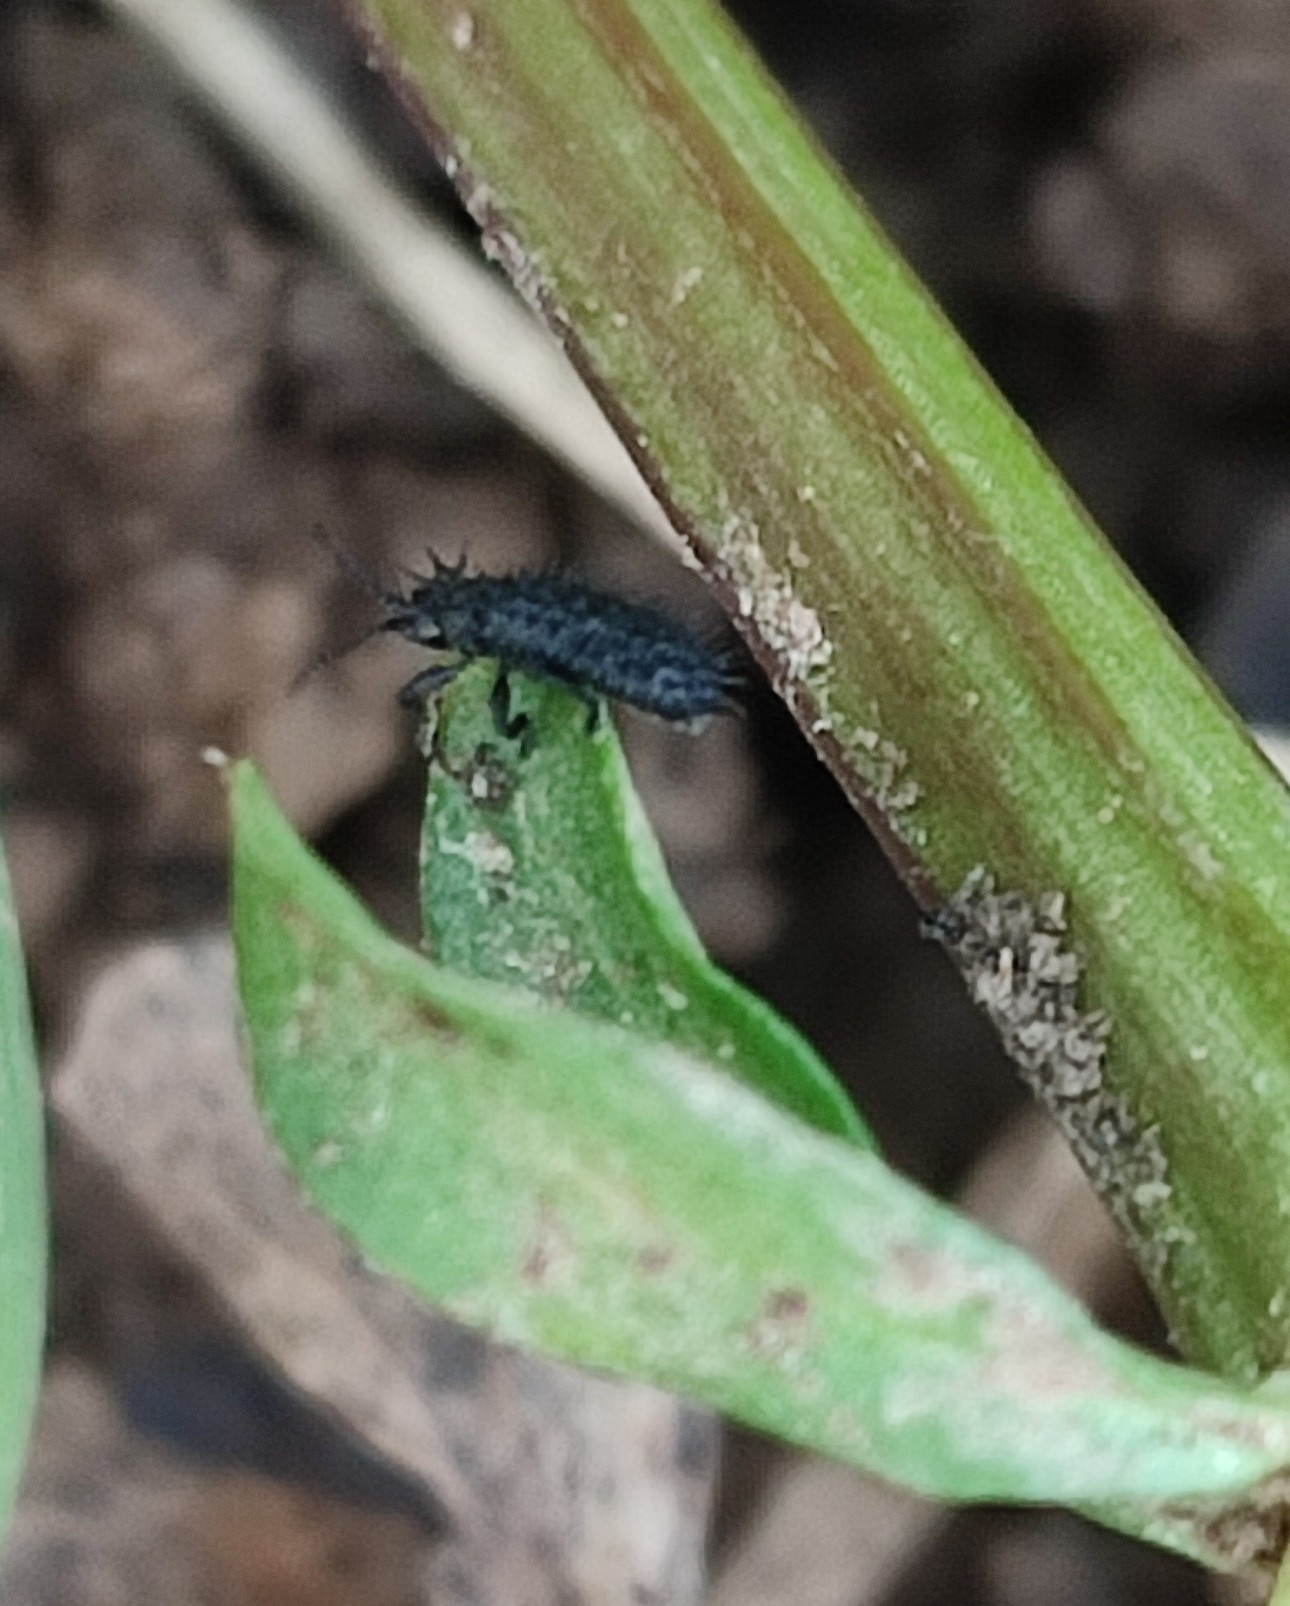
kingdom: Animalia
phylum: Arthropoda
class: Insecta
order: Coleoptera
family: Chrysomelidae
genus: Hispa
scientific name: Hispa atra
